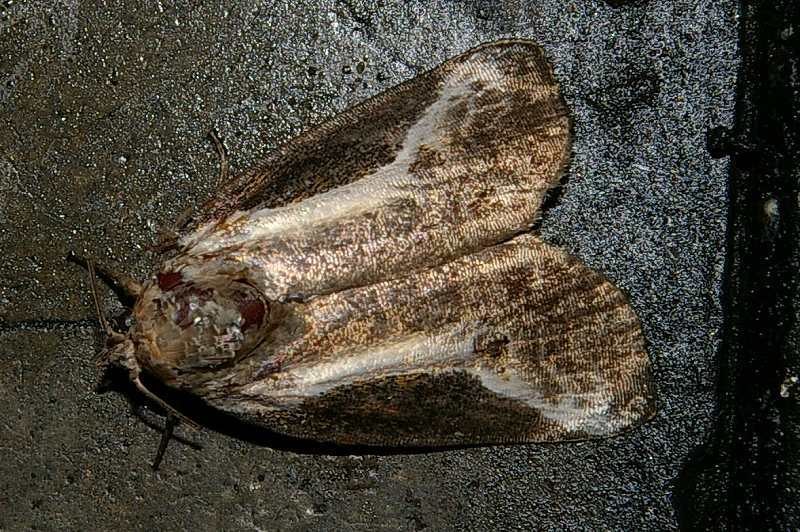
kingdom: Animalia
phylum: Arthropoda
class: Insecta
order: Lepidoptera
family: Noctuidae
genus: Stenoloba
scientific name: Stenoloba jankowskii
